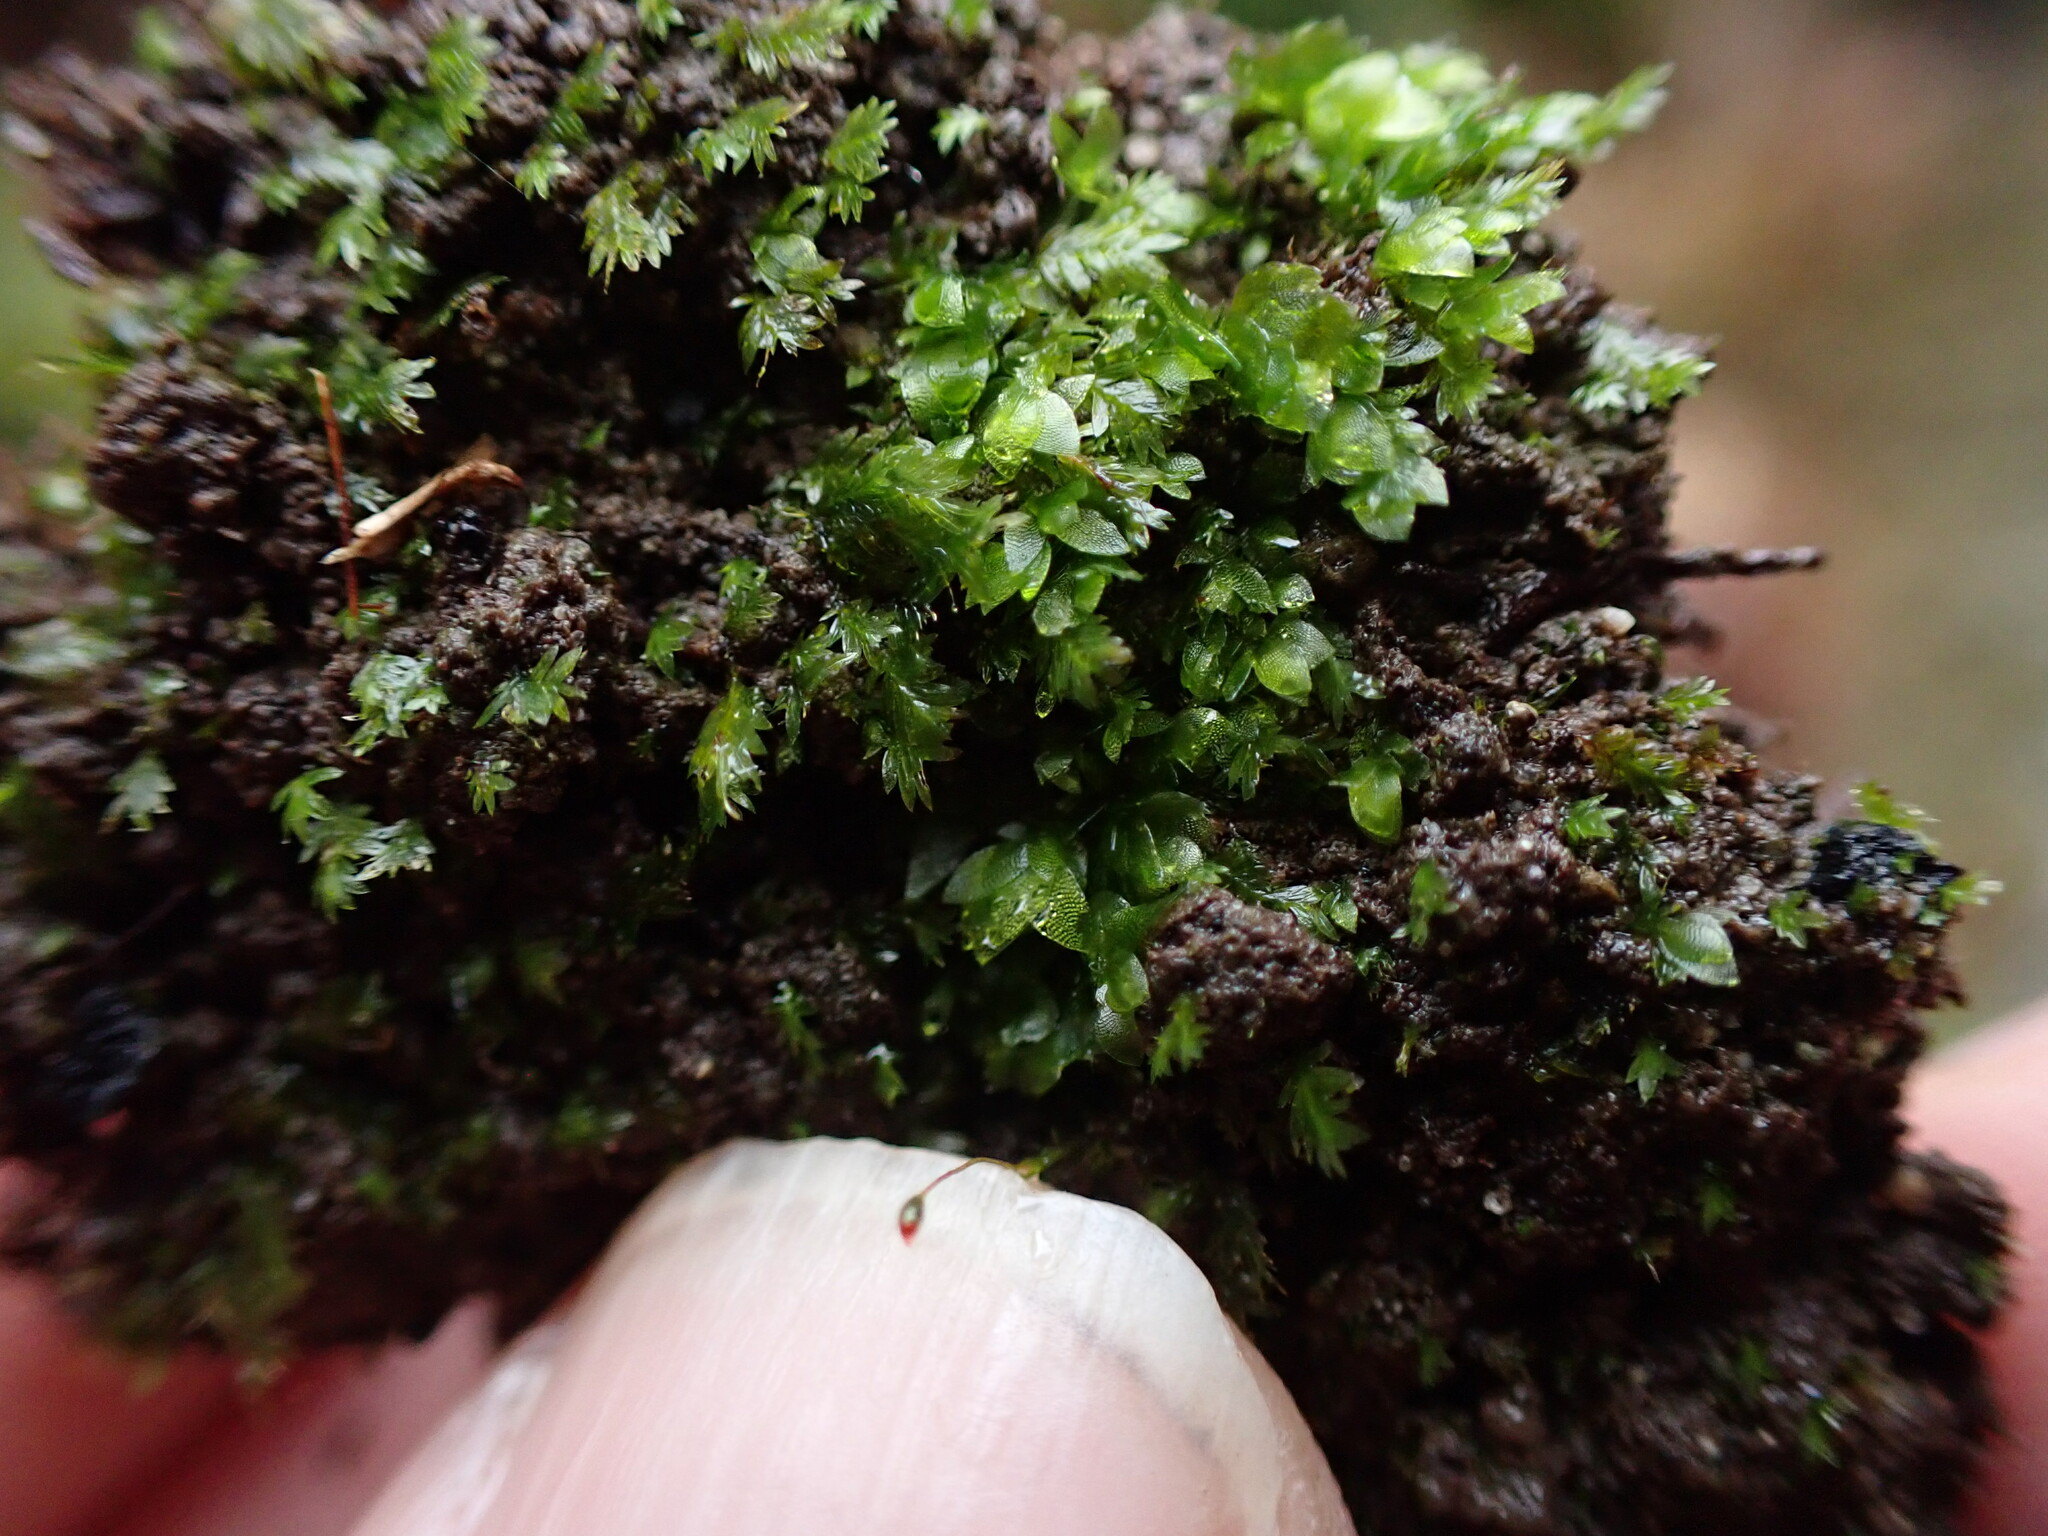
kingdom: Plantae
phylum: Bryophyta
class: Bryopsida
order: Hookeriales
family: Hookeriaceae
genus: Hookeria
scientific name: Hookeria lucens
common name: Shining hookeria
